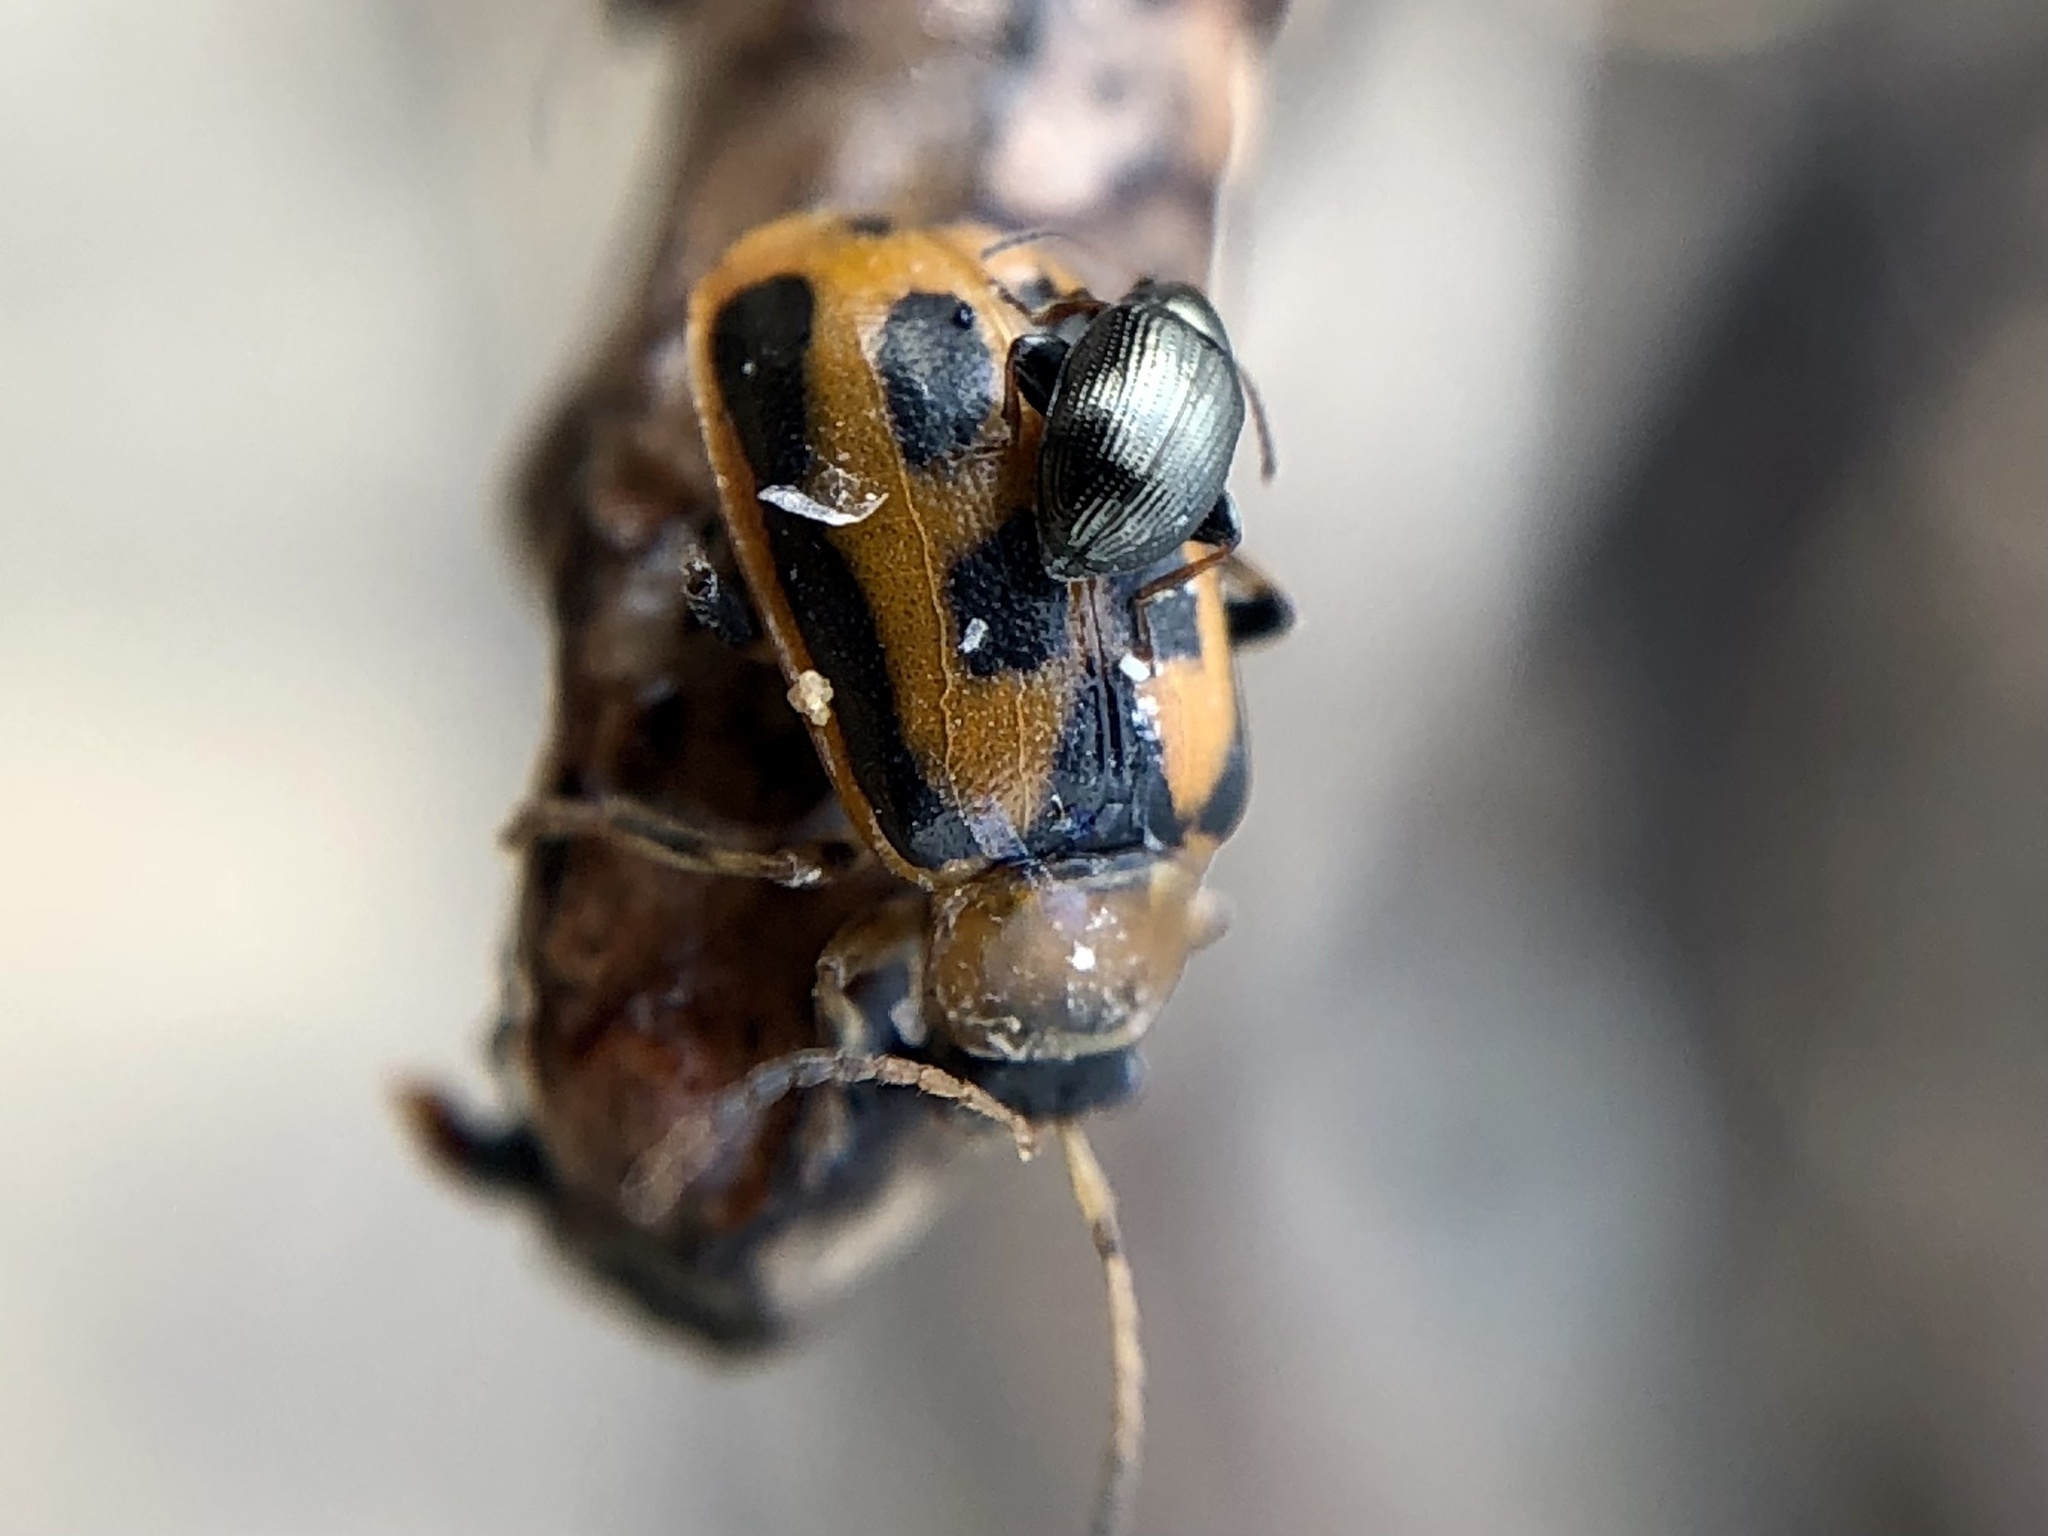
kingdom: Animalia
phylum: Arthropoda
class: Insecta
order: Coleoptera
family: Chrysomelidae
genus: Cerotoma
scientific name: Cerotoma trifurcata
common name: Bean leaf beetle
